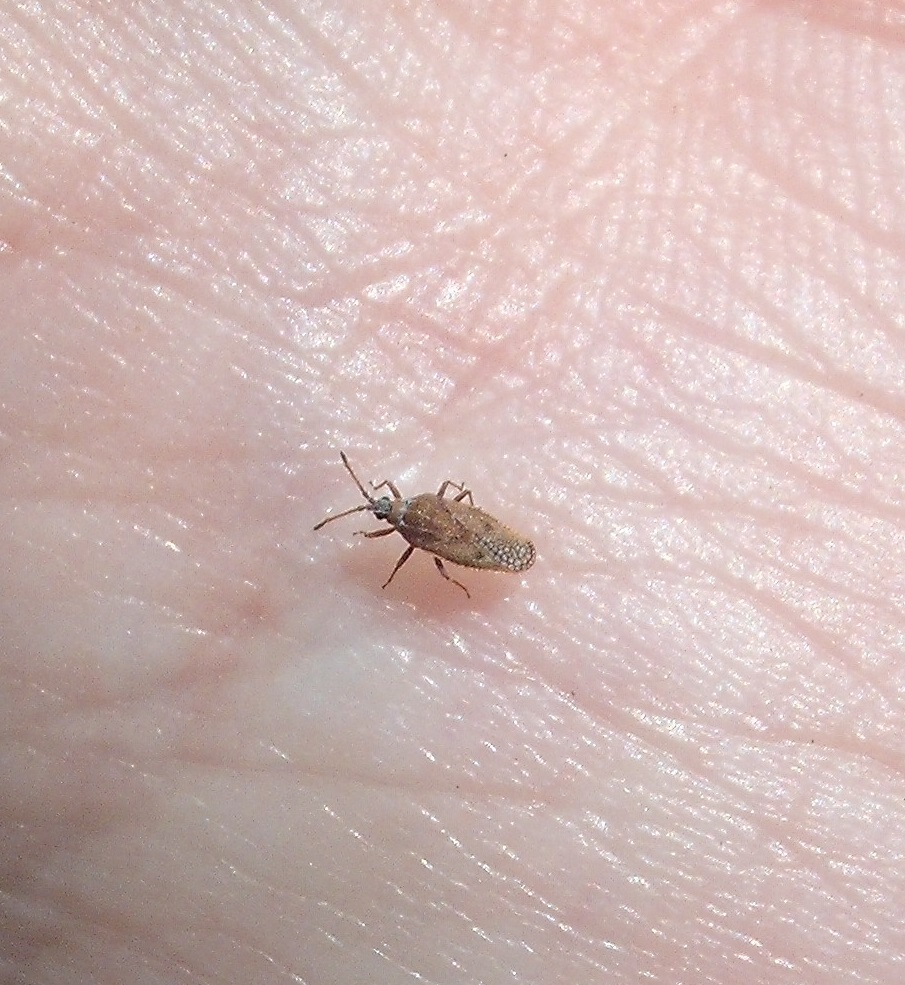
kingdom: Animalia
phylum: Arthropoda
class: Insecta
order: Hemiptera
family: Tingidae
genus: Leptoypha
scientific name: Leptoypha hospita
